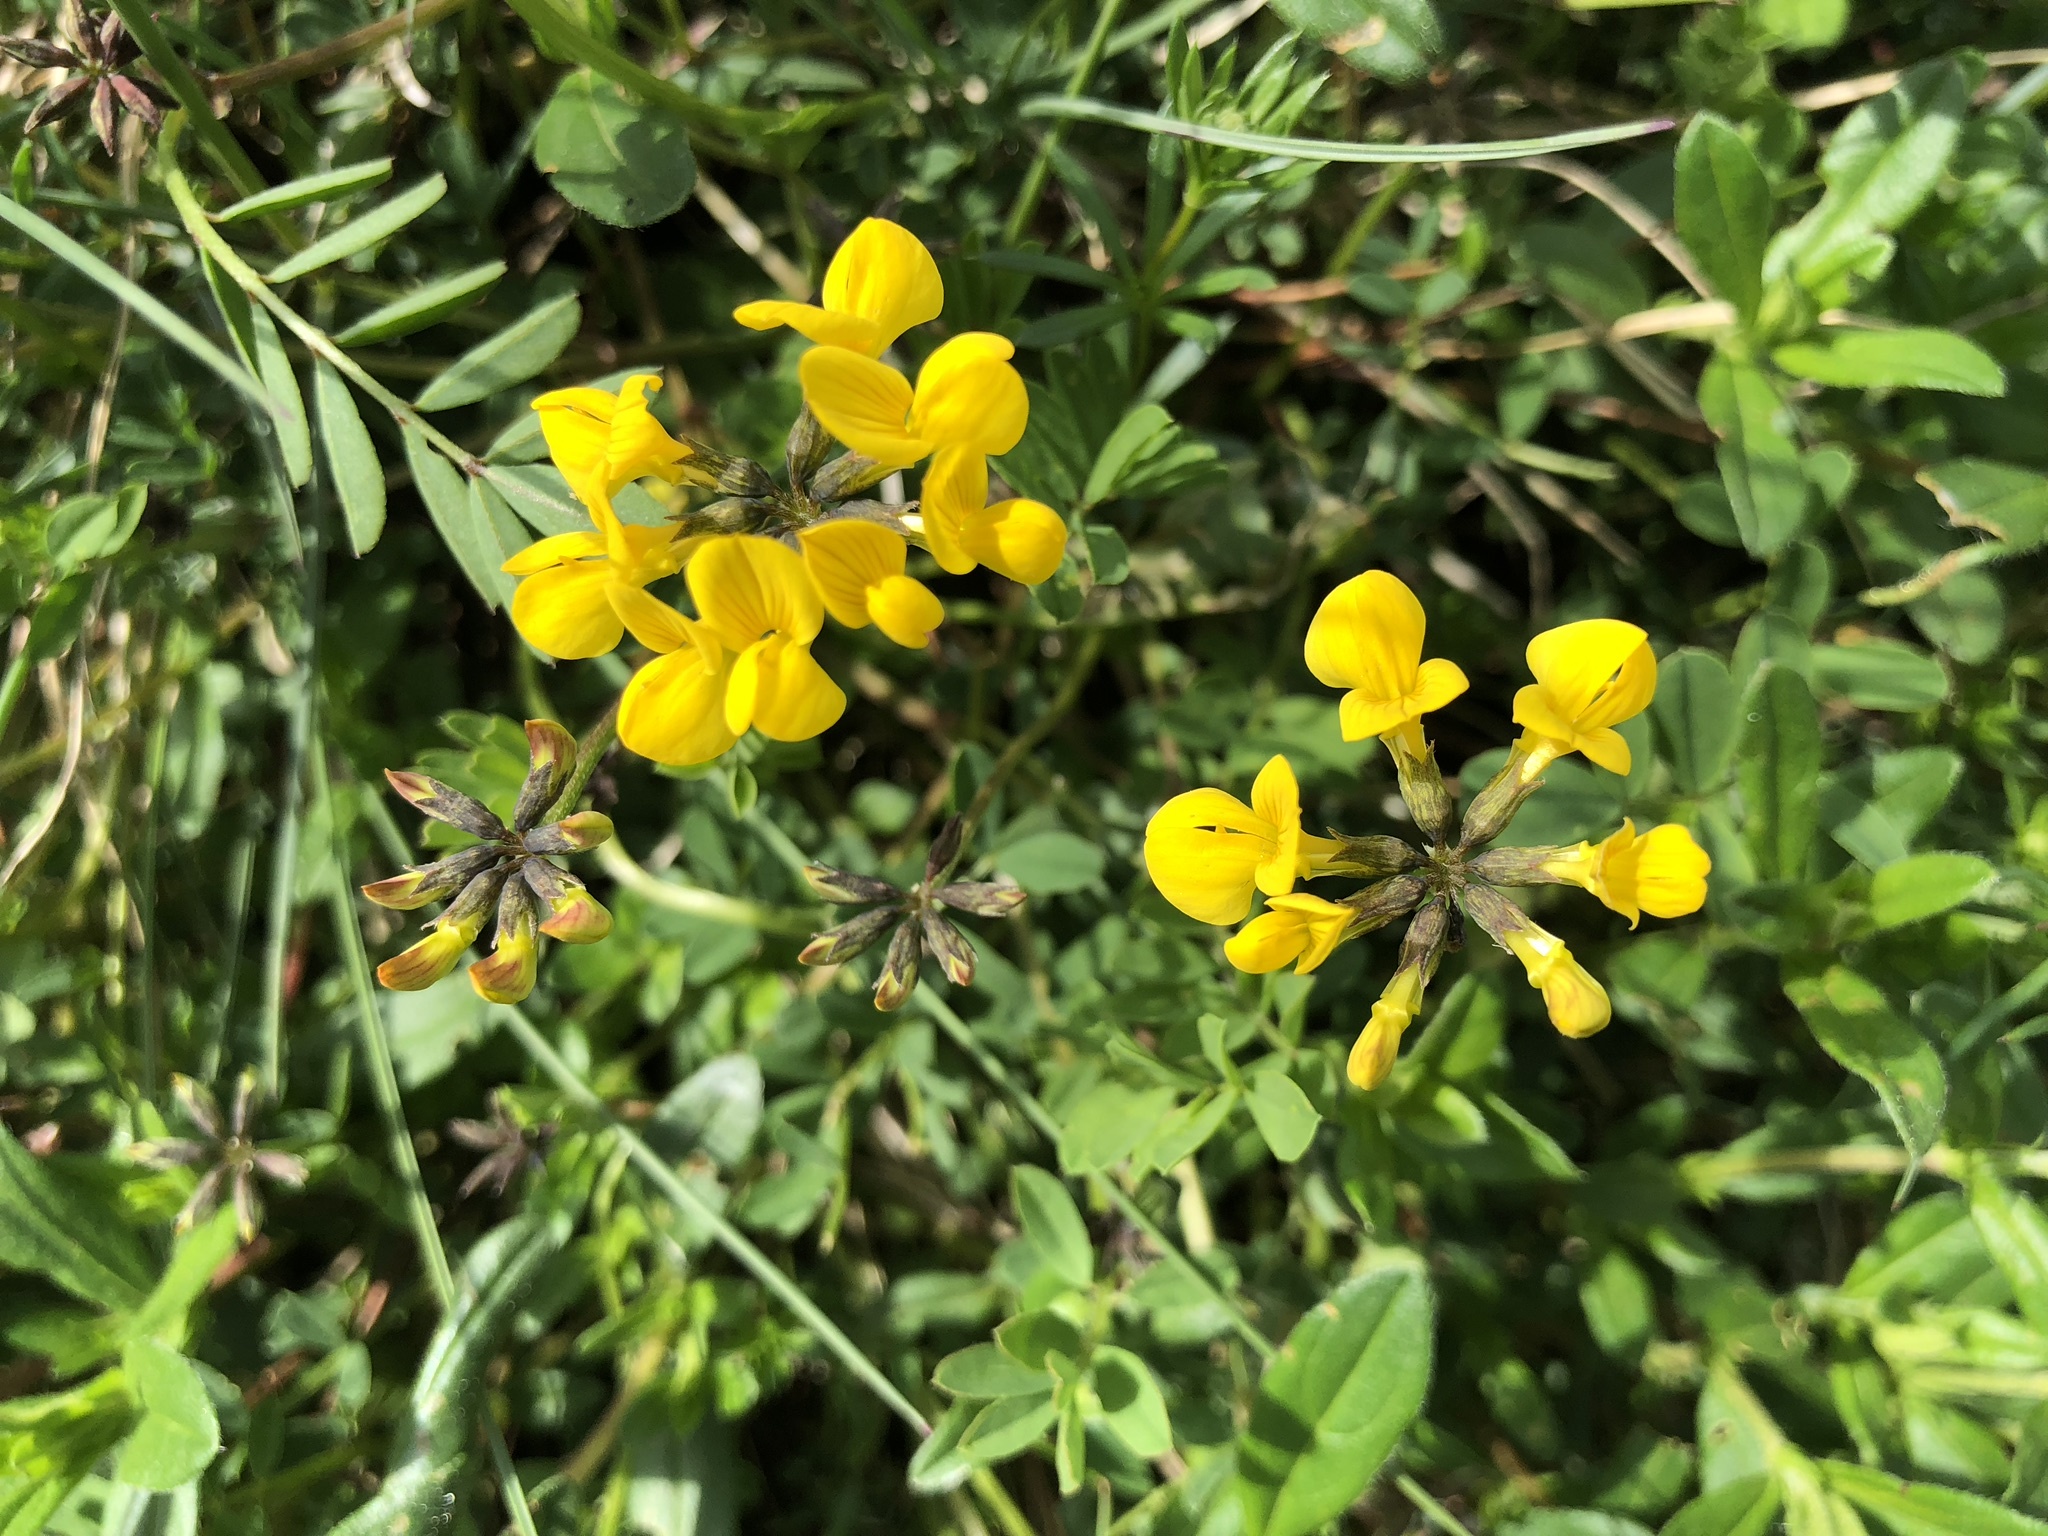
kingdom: Plantae
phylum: Tracheophyta
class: Magnoliopsida
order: Fabales
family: Fabaceae
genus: Hippocrepis
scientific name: Hippocrepis comosa
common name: Horseshoe vetch
